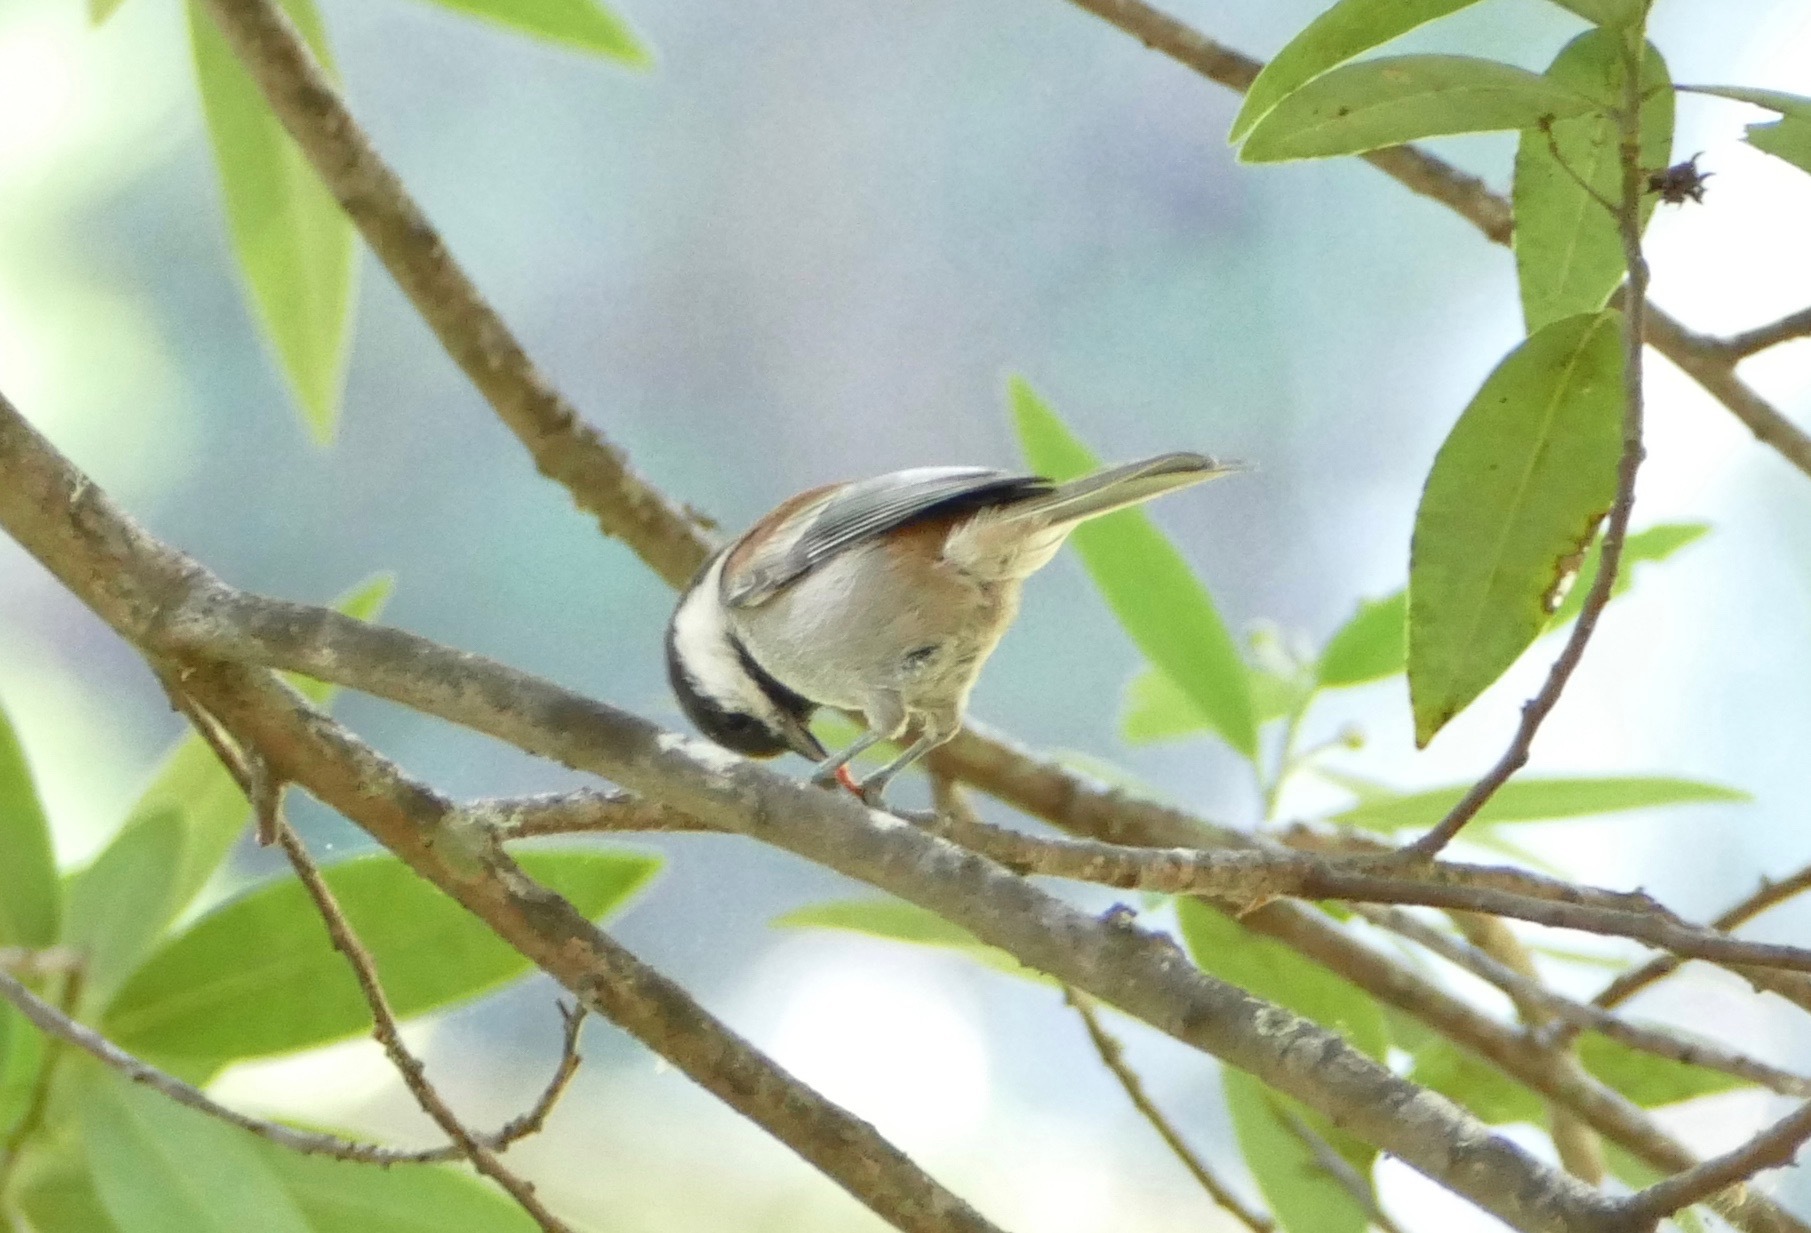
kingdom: Animalia
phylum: Chordata
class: Aves
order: Passeriformes
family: Paridae
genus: Poecile
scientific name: Poecile rufescens
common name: Chestnut-backed chickadee
